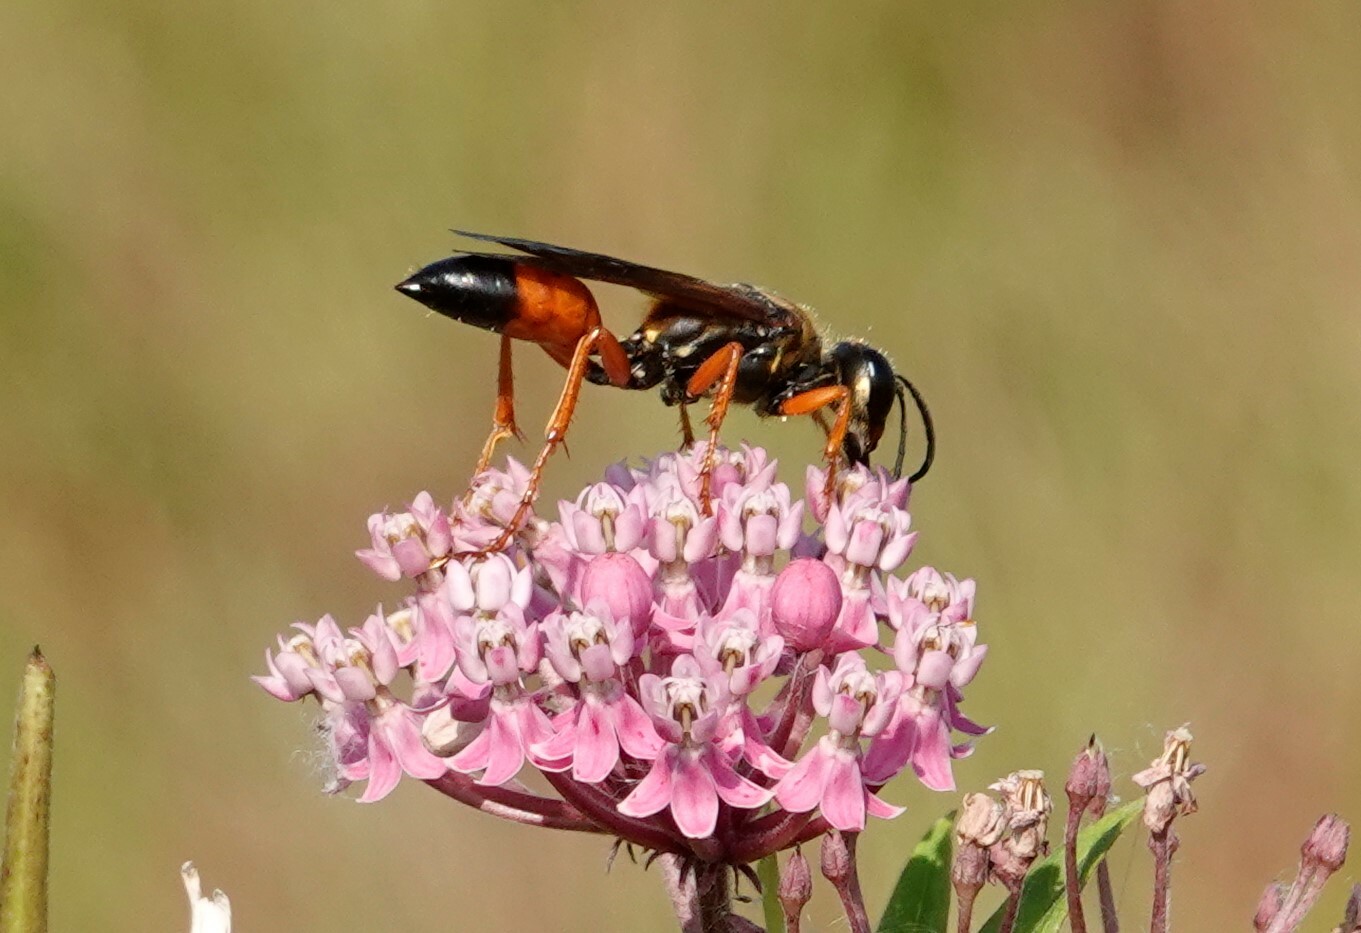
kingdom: Animalia
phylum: Arthropoda
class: Insecta
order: Hymenoptera
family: Sphecidae
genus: Sphex
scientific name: Sphex ichneumoneus
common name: Great golden digger wasp
